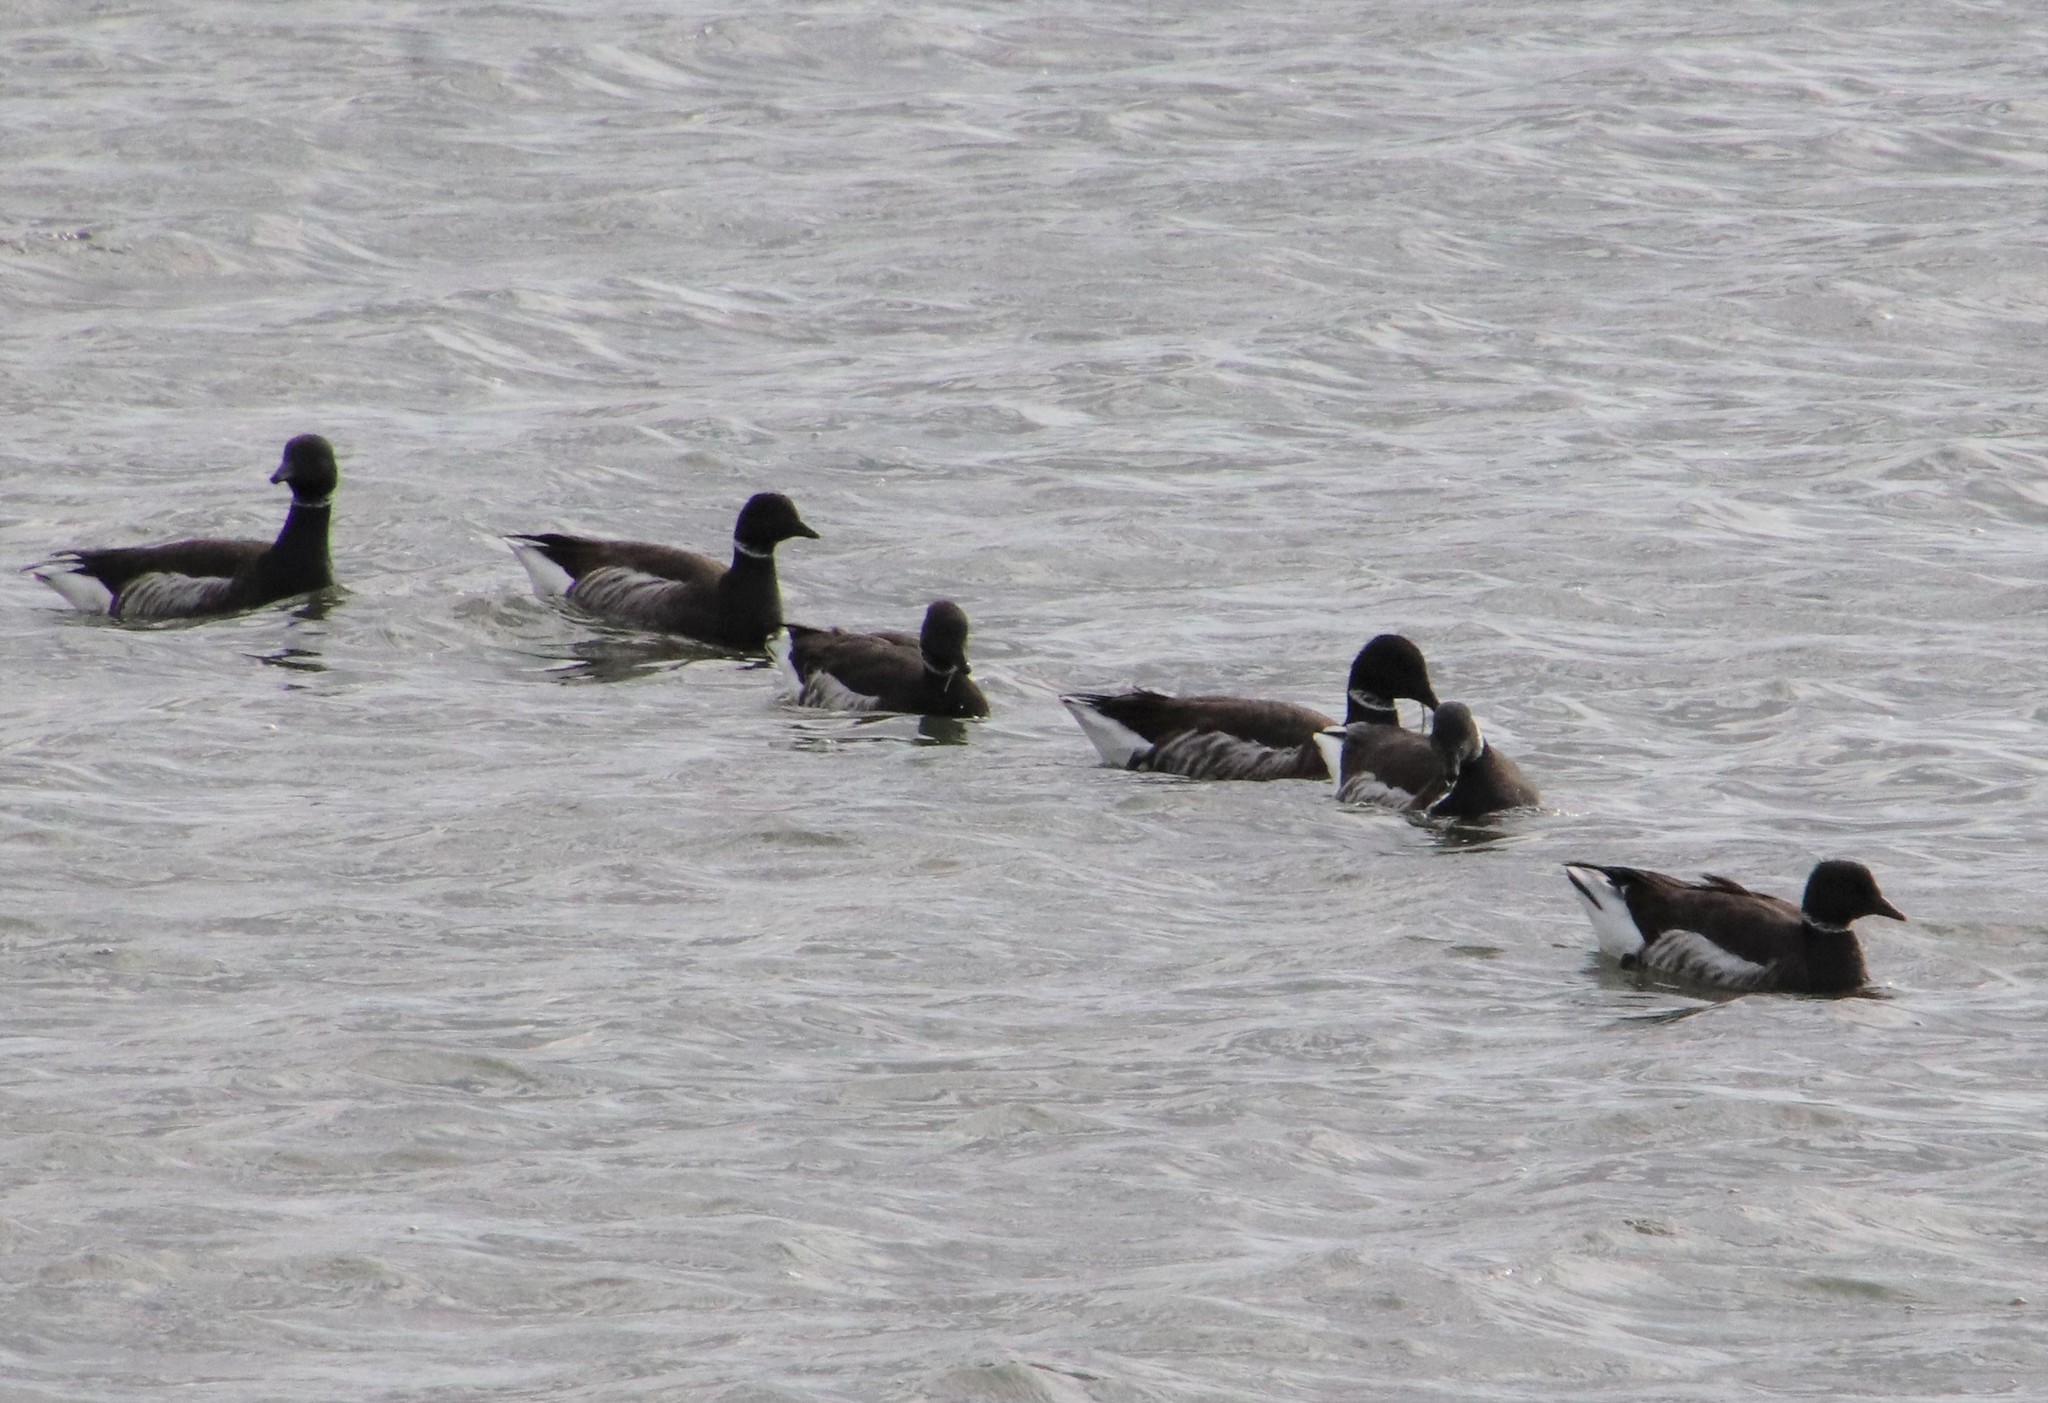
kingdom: Animalia
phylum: Chordata
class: Aves
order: Anseriformes
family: Anatidae
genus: Branta
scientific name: Branta bernicla
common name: Brant goose
